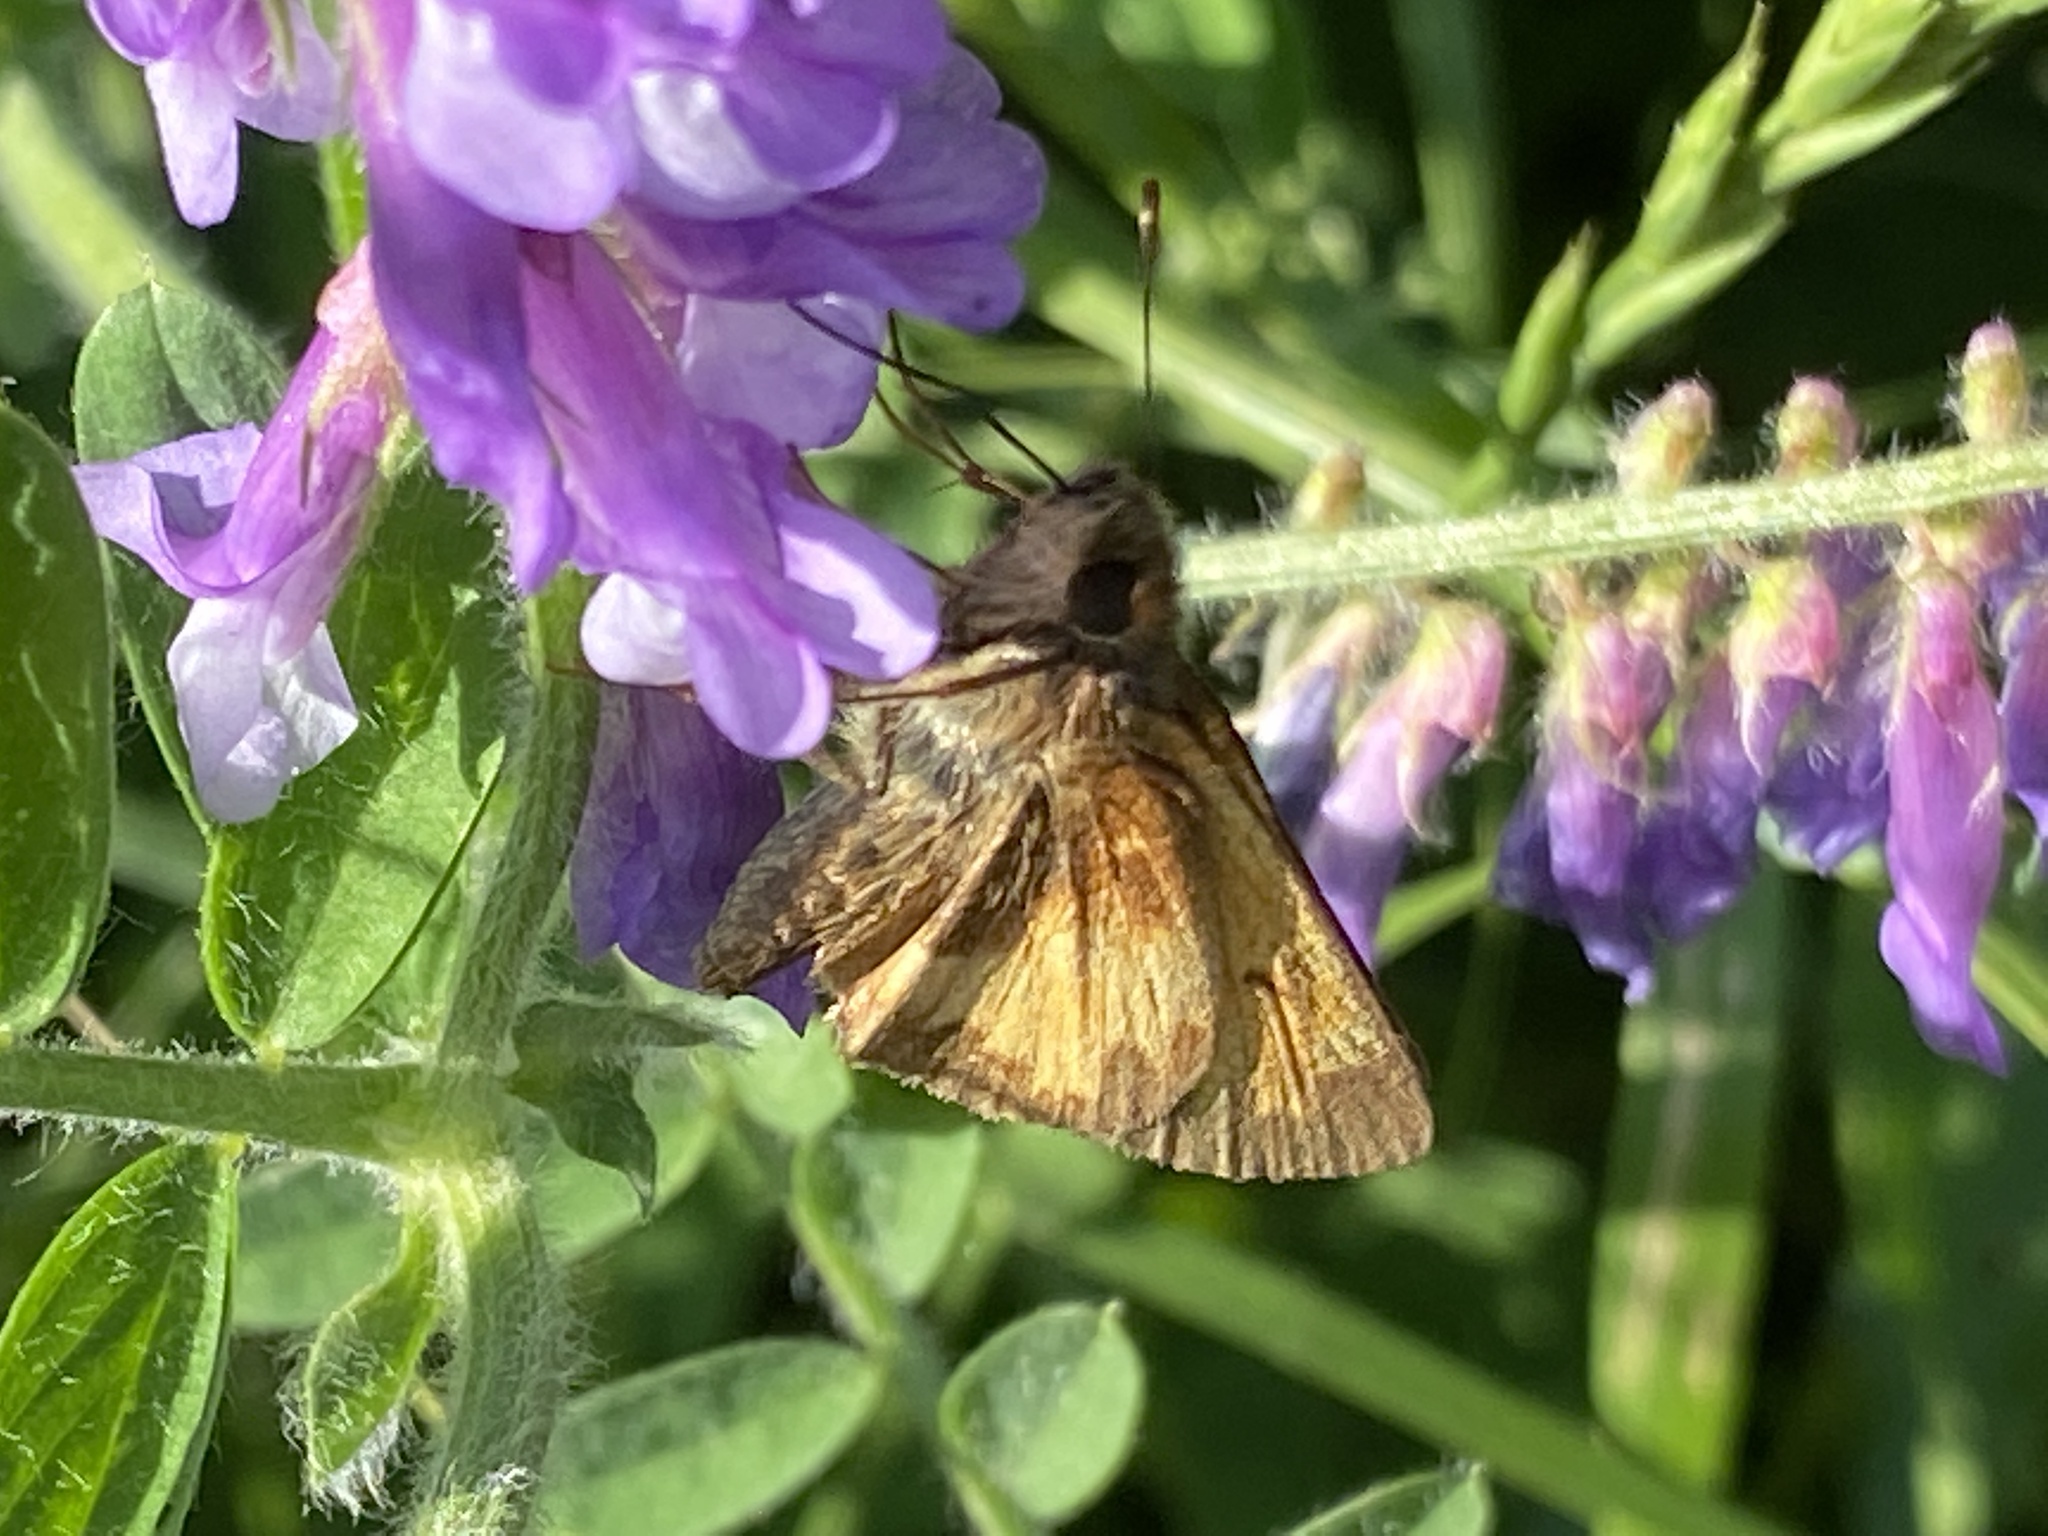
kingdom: Animalia
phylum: Arthropoda
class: Insecta
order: Lepidoptera
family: Hesperiidae
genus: Lon
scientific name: Lon hobomok
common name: Hobomok skipper
